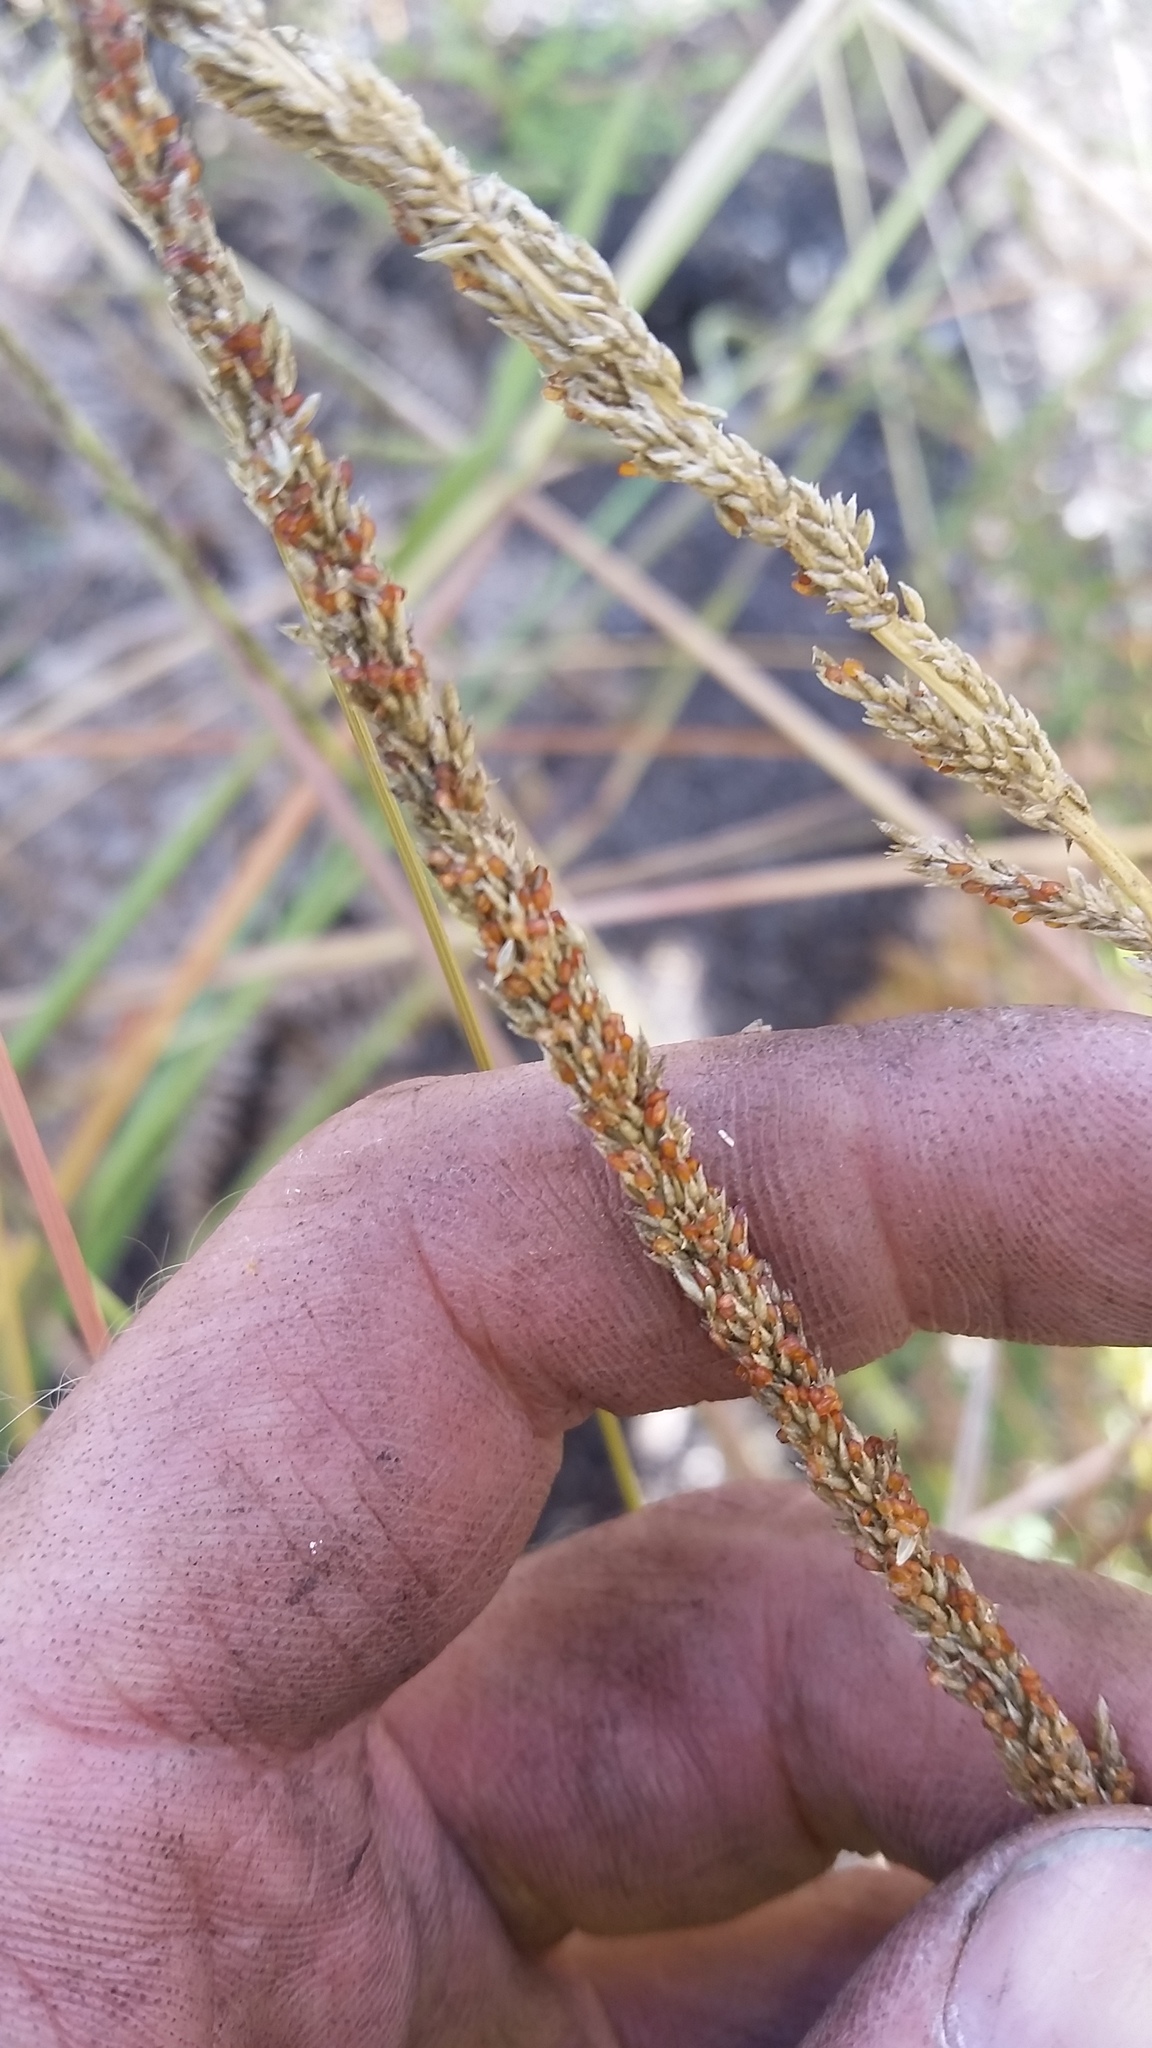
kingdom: Plantae
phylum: Tracheophyta
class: Liliopsida
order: Poales
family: Poaceae
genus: Sporobolus
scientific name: Sporobolus africanus
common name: African dropseed
